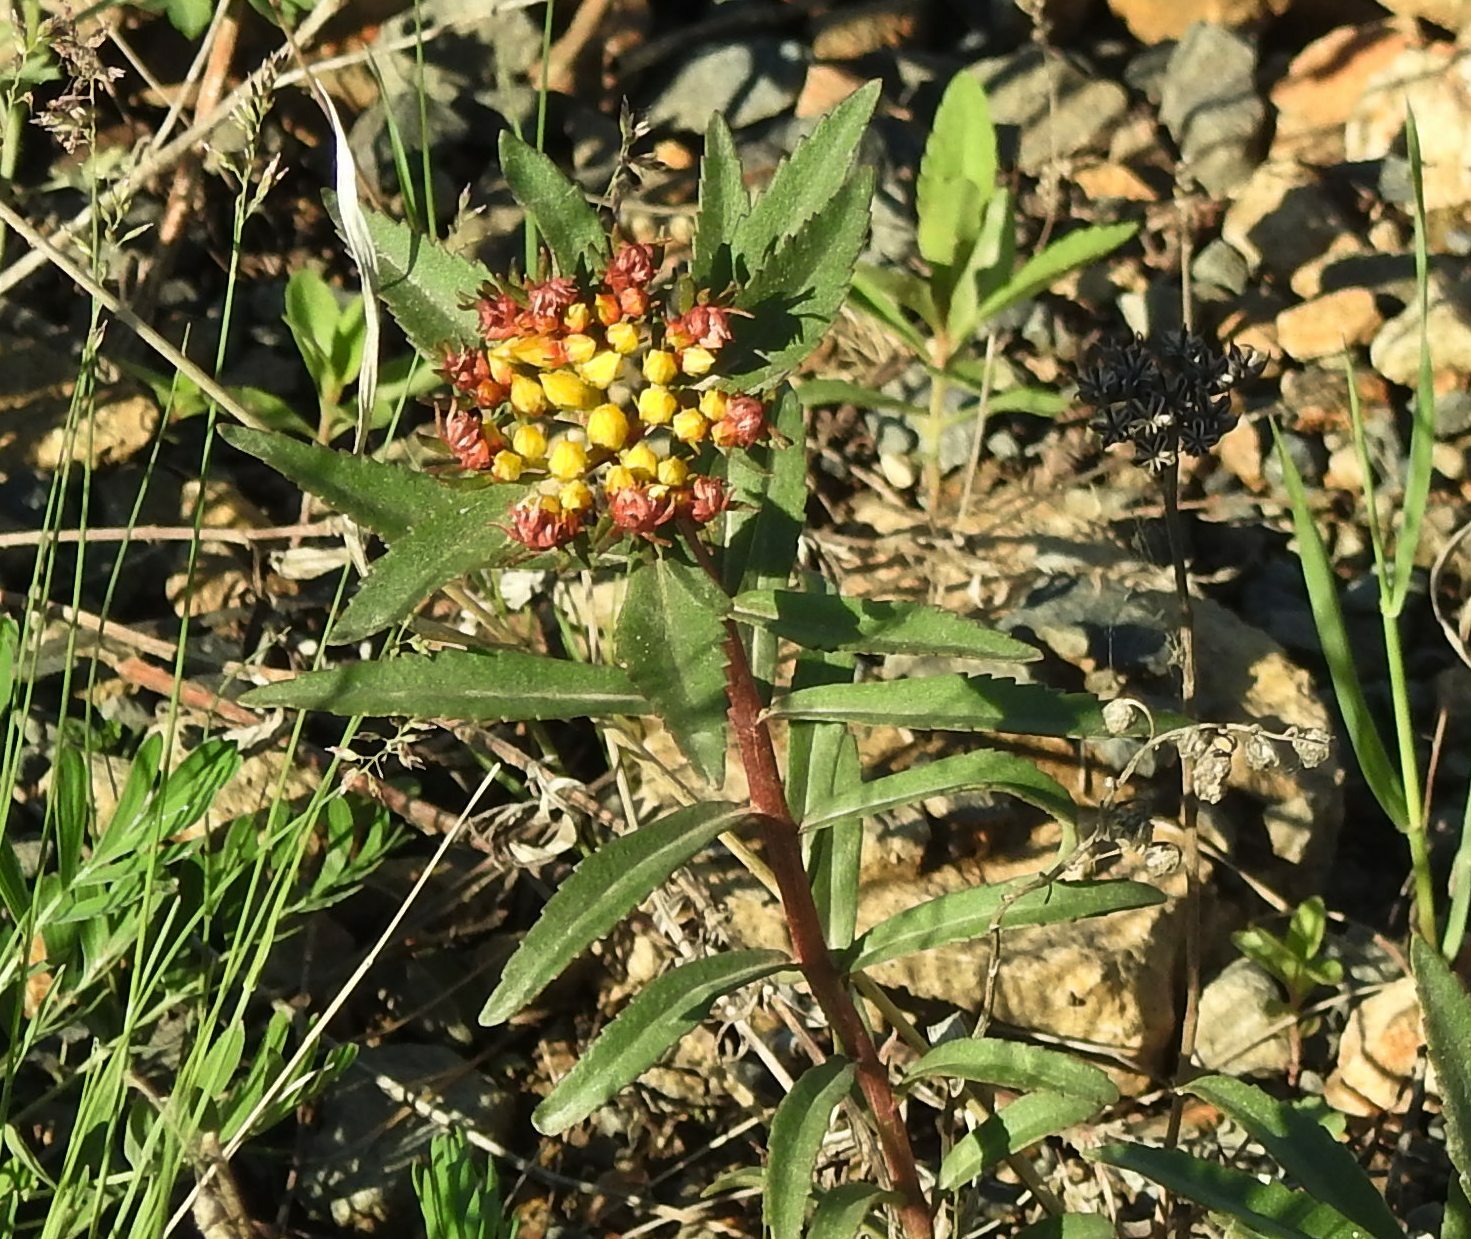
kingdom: Plantae
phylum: Tracheophyta
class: Magnoliopsida
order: Saxifragales
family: Crassulaceae
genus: Phedimus
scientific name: Phedimus aizoon
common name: Orpin aizoon
